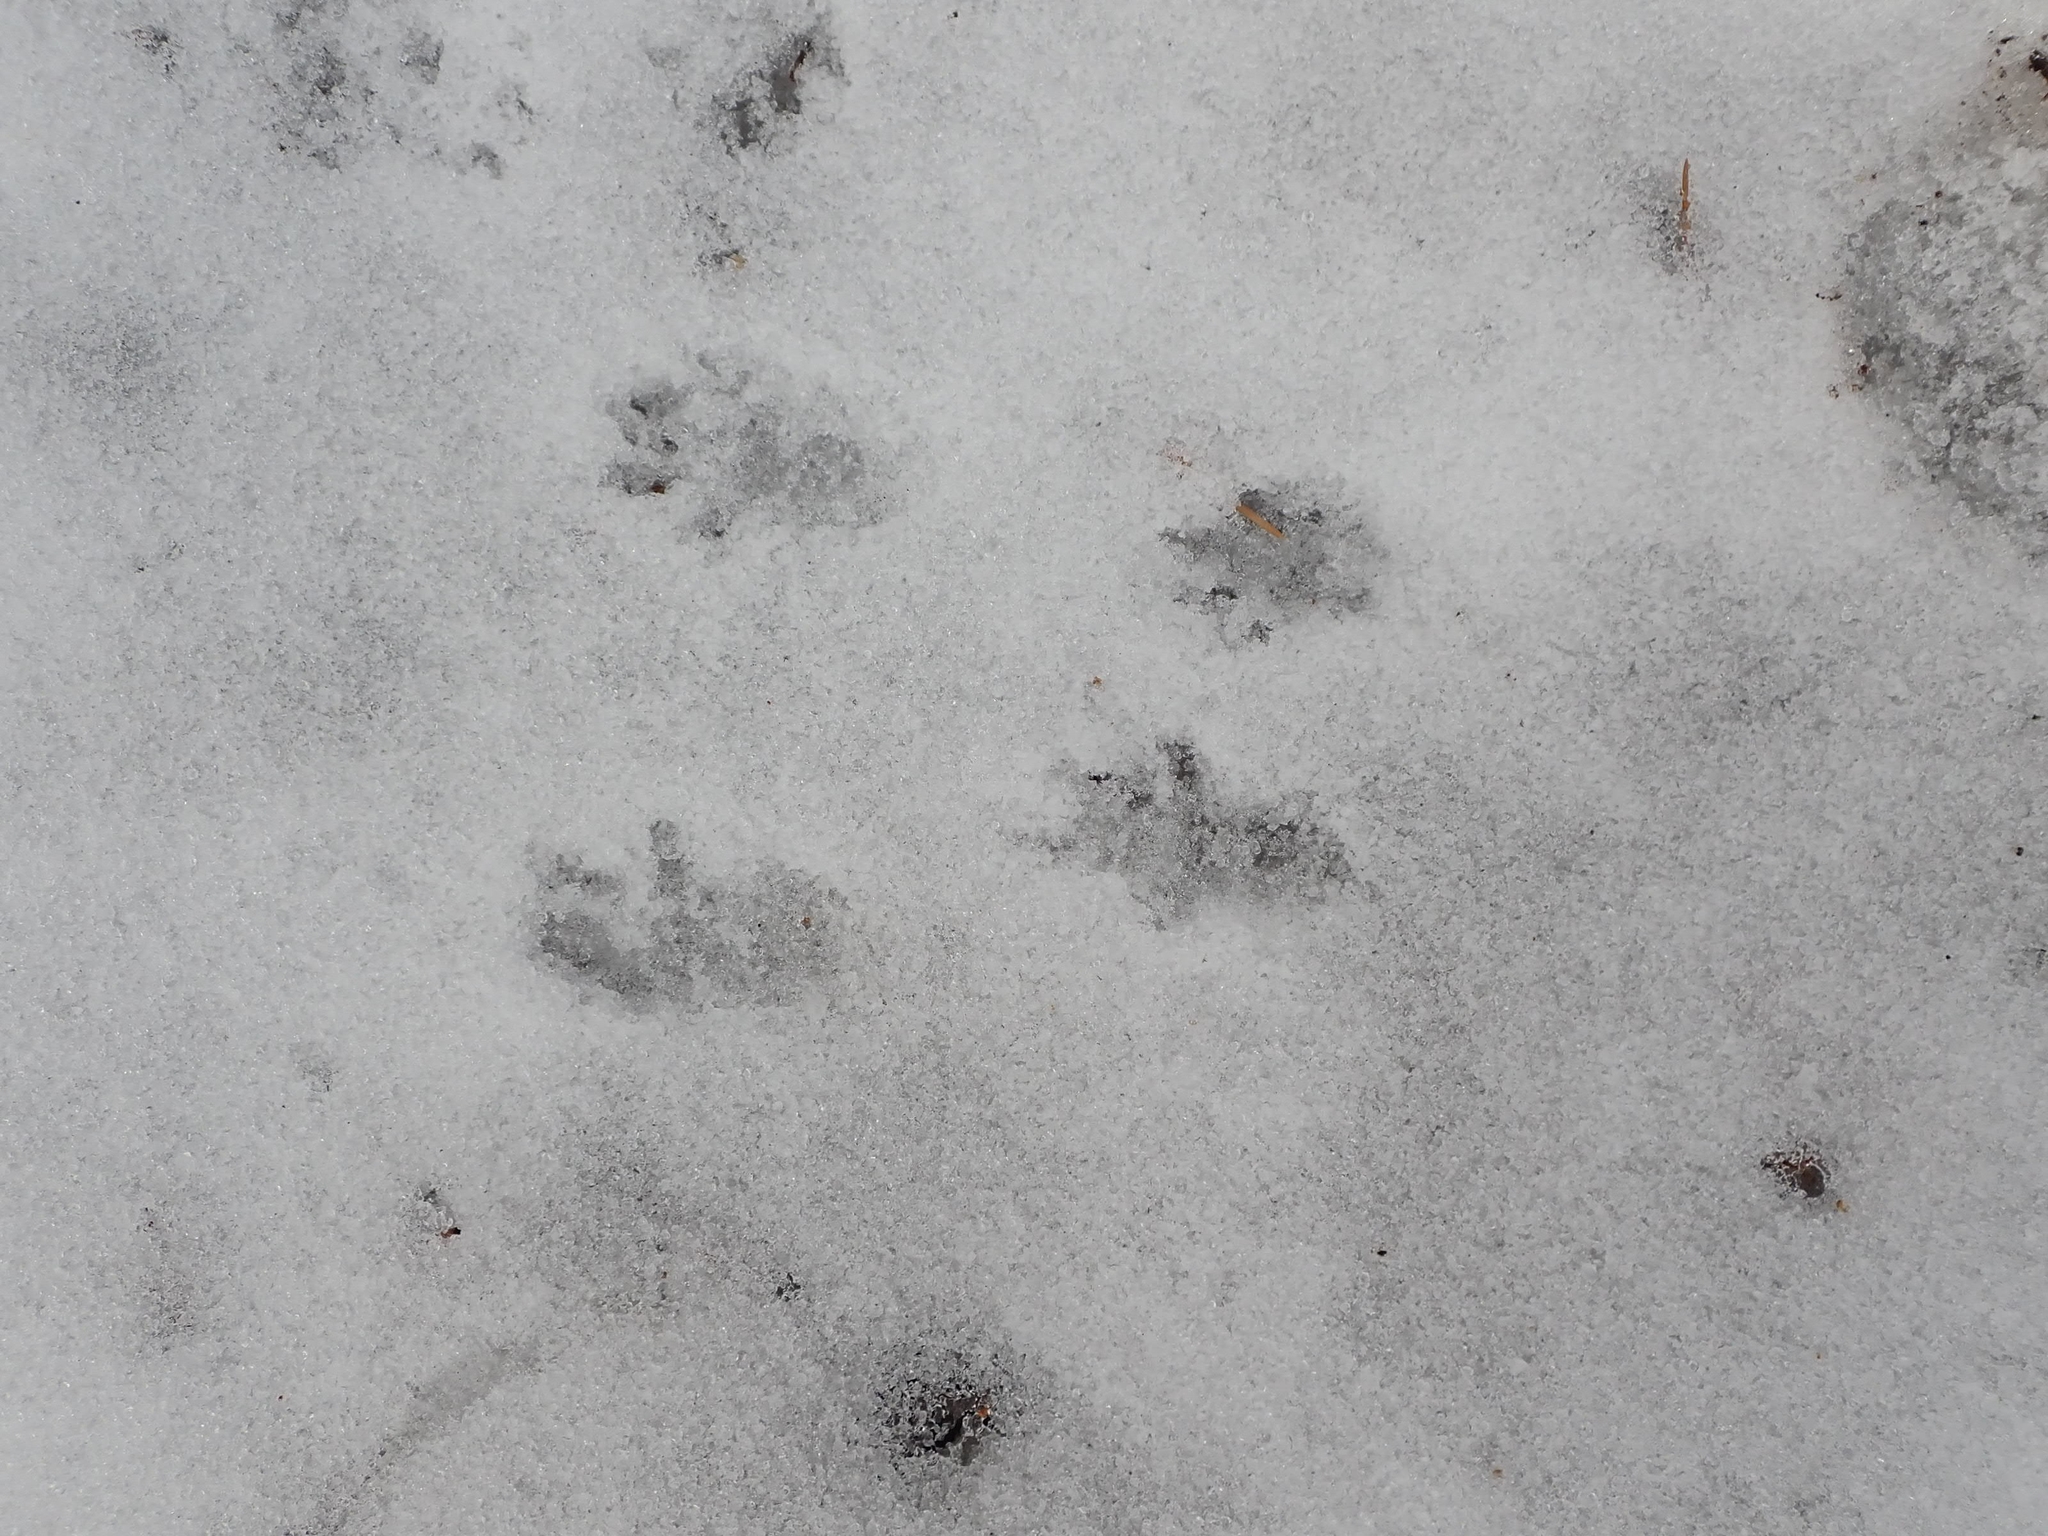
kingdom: Animalia
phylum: Chordata
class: Mammalia
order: Rodentia
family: Sciuridae
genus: Tamiasciurus
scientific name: Tamiasciurus hudsonicus
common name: Red squirrel
